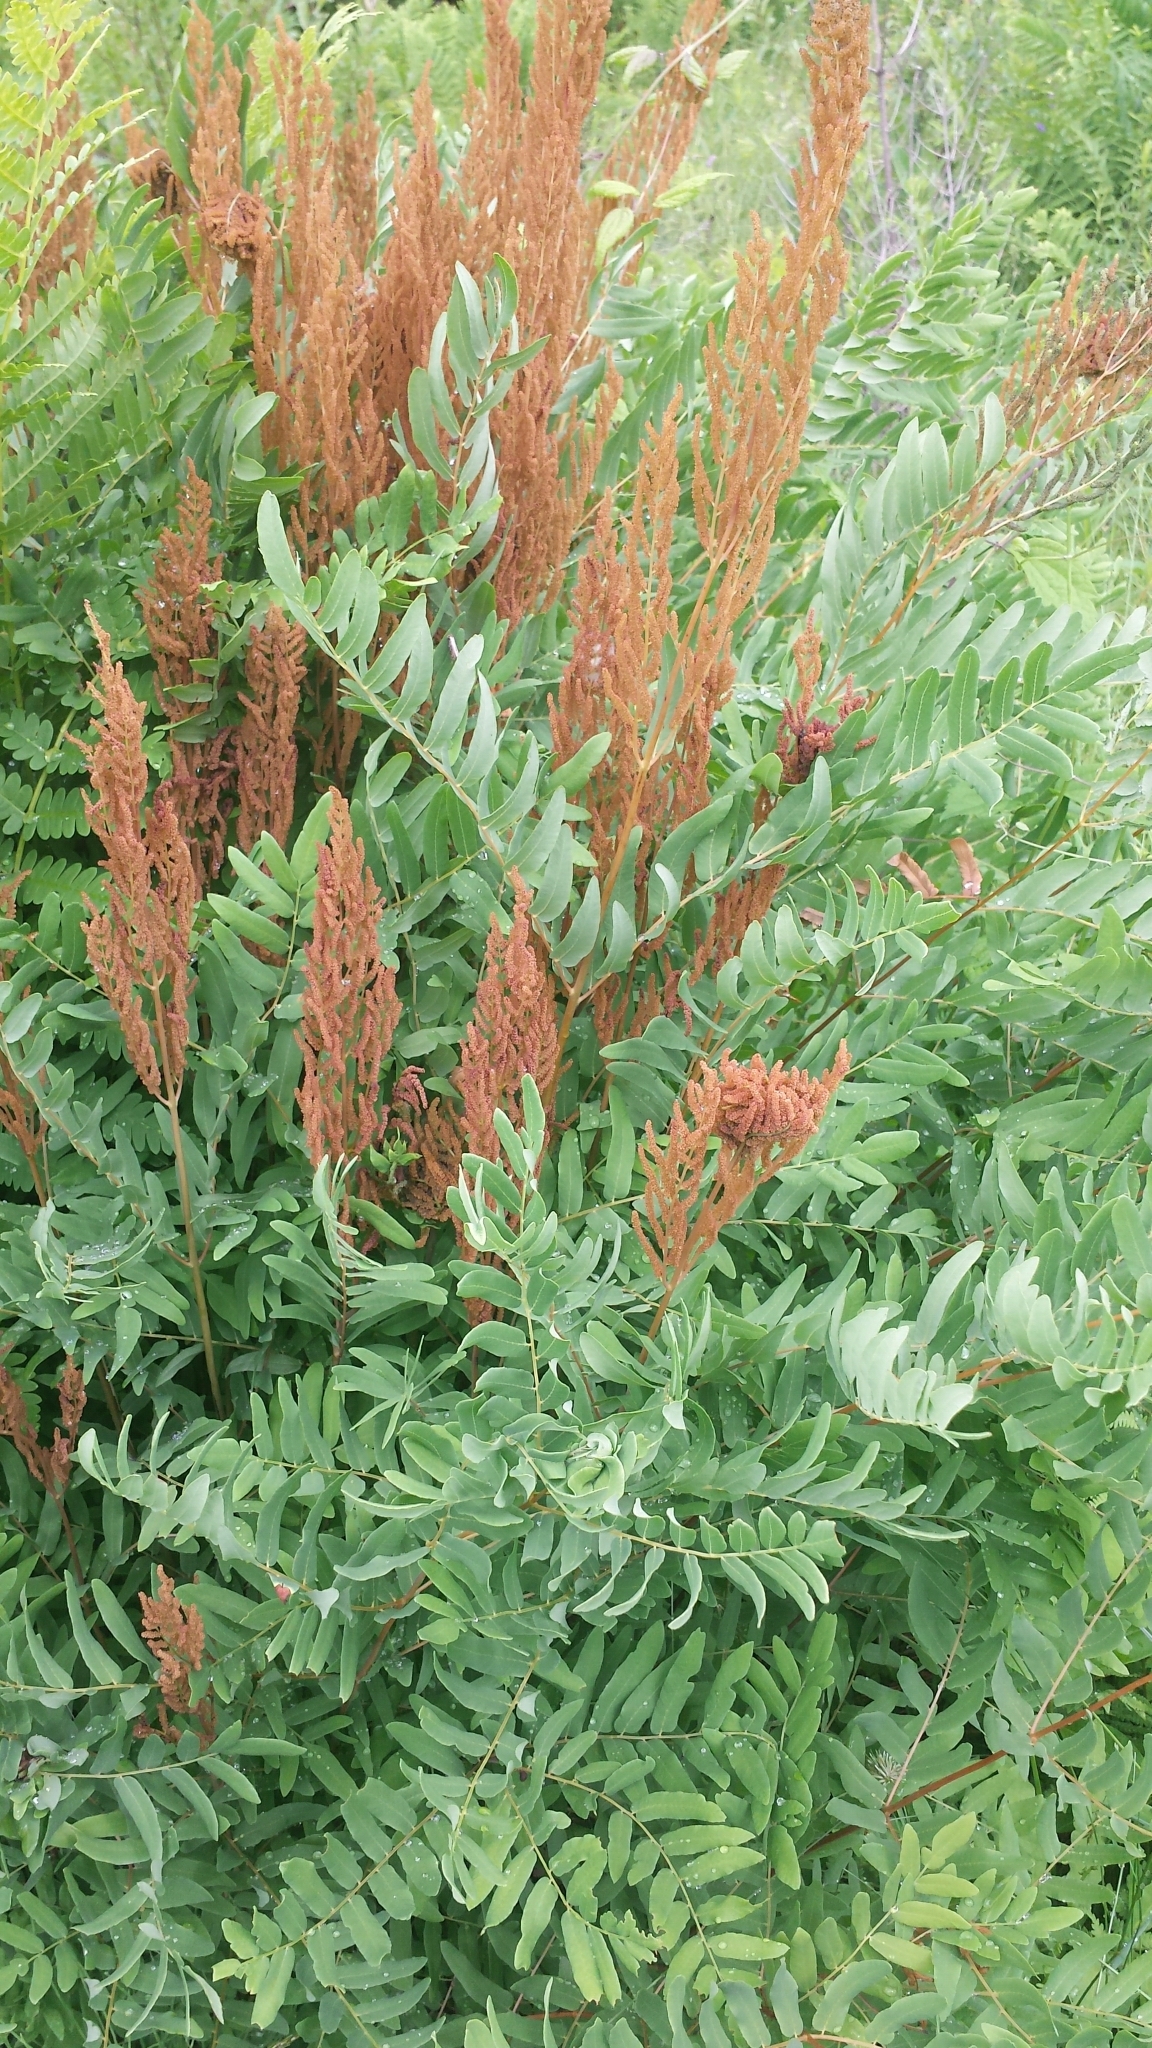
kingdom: Plantae
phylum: Tracheophyta
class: Polypodiopsida
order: Osmundales
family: Osmundaceae
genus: Osmunda
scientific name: Osmunda spectabilis
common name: American royal fern
